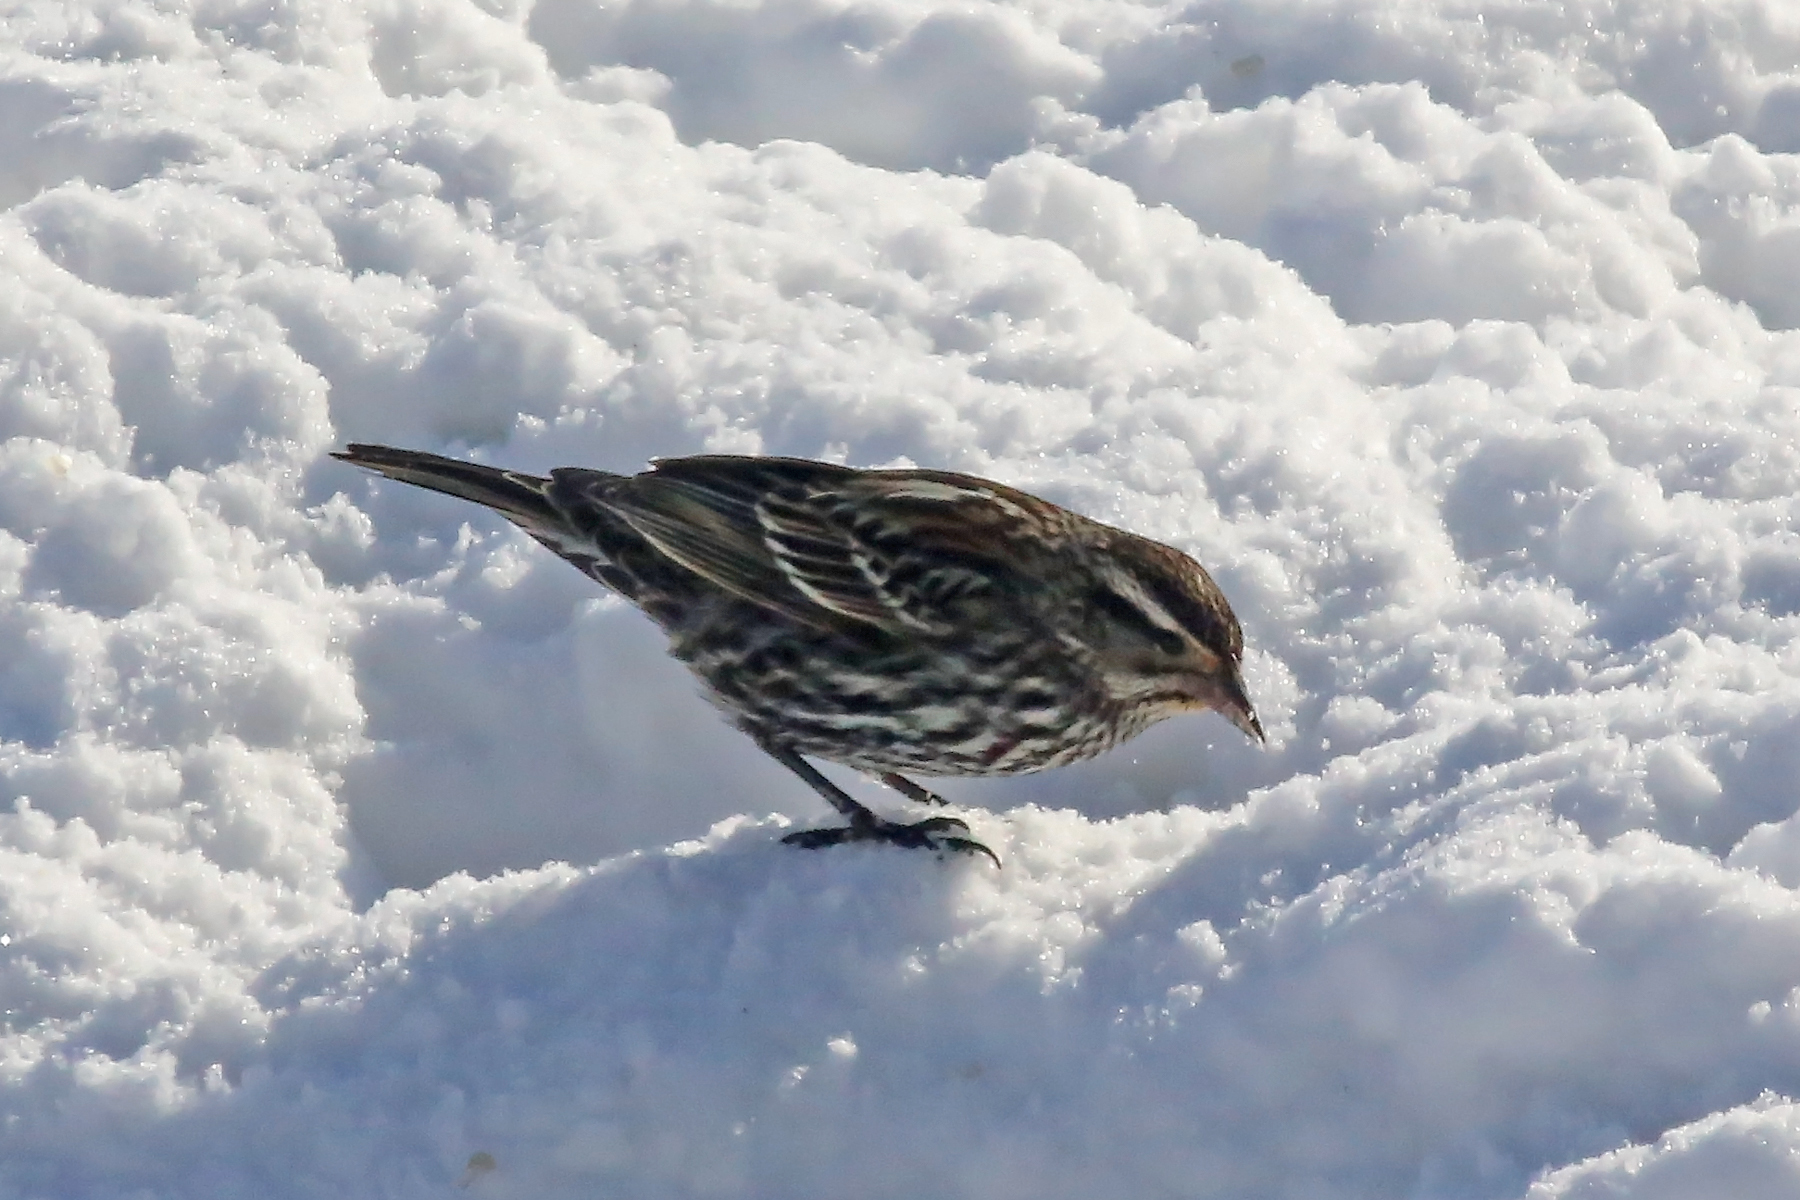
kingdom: Animalia
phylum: Chordata
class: Aves
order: Passeriformes
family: Icteridae
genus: Agelaius
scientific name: Agelaius phoeniceus
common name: Red-winged blackbird
